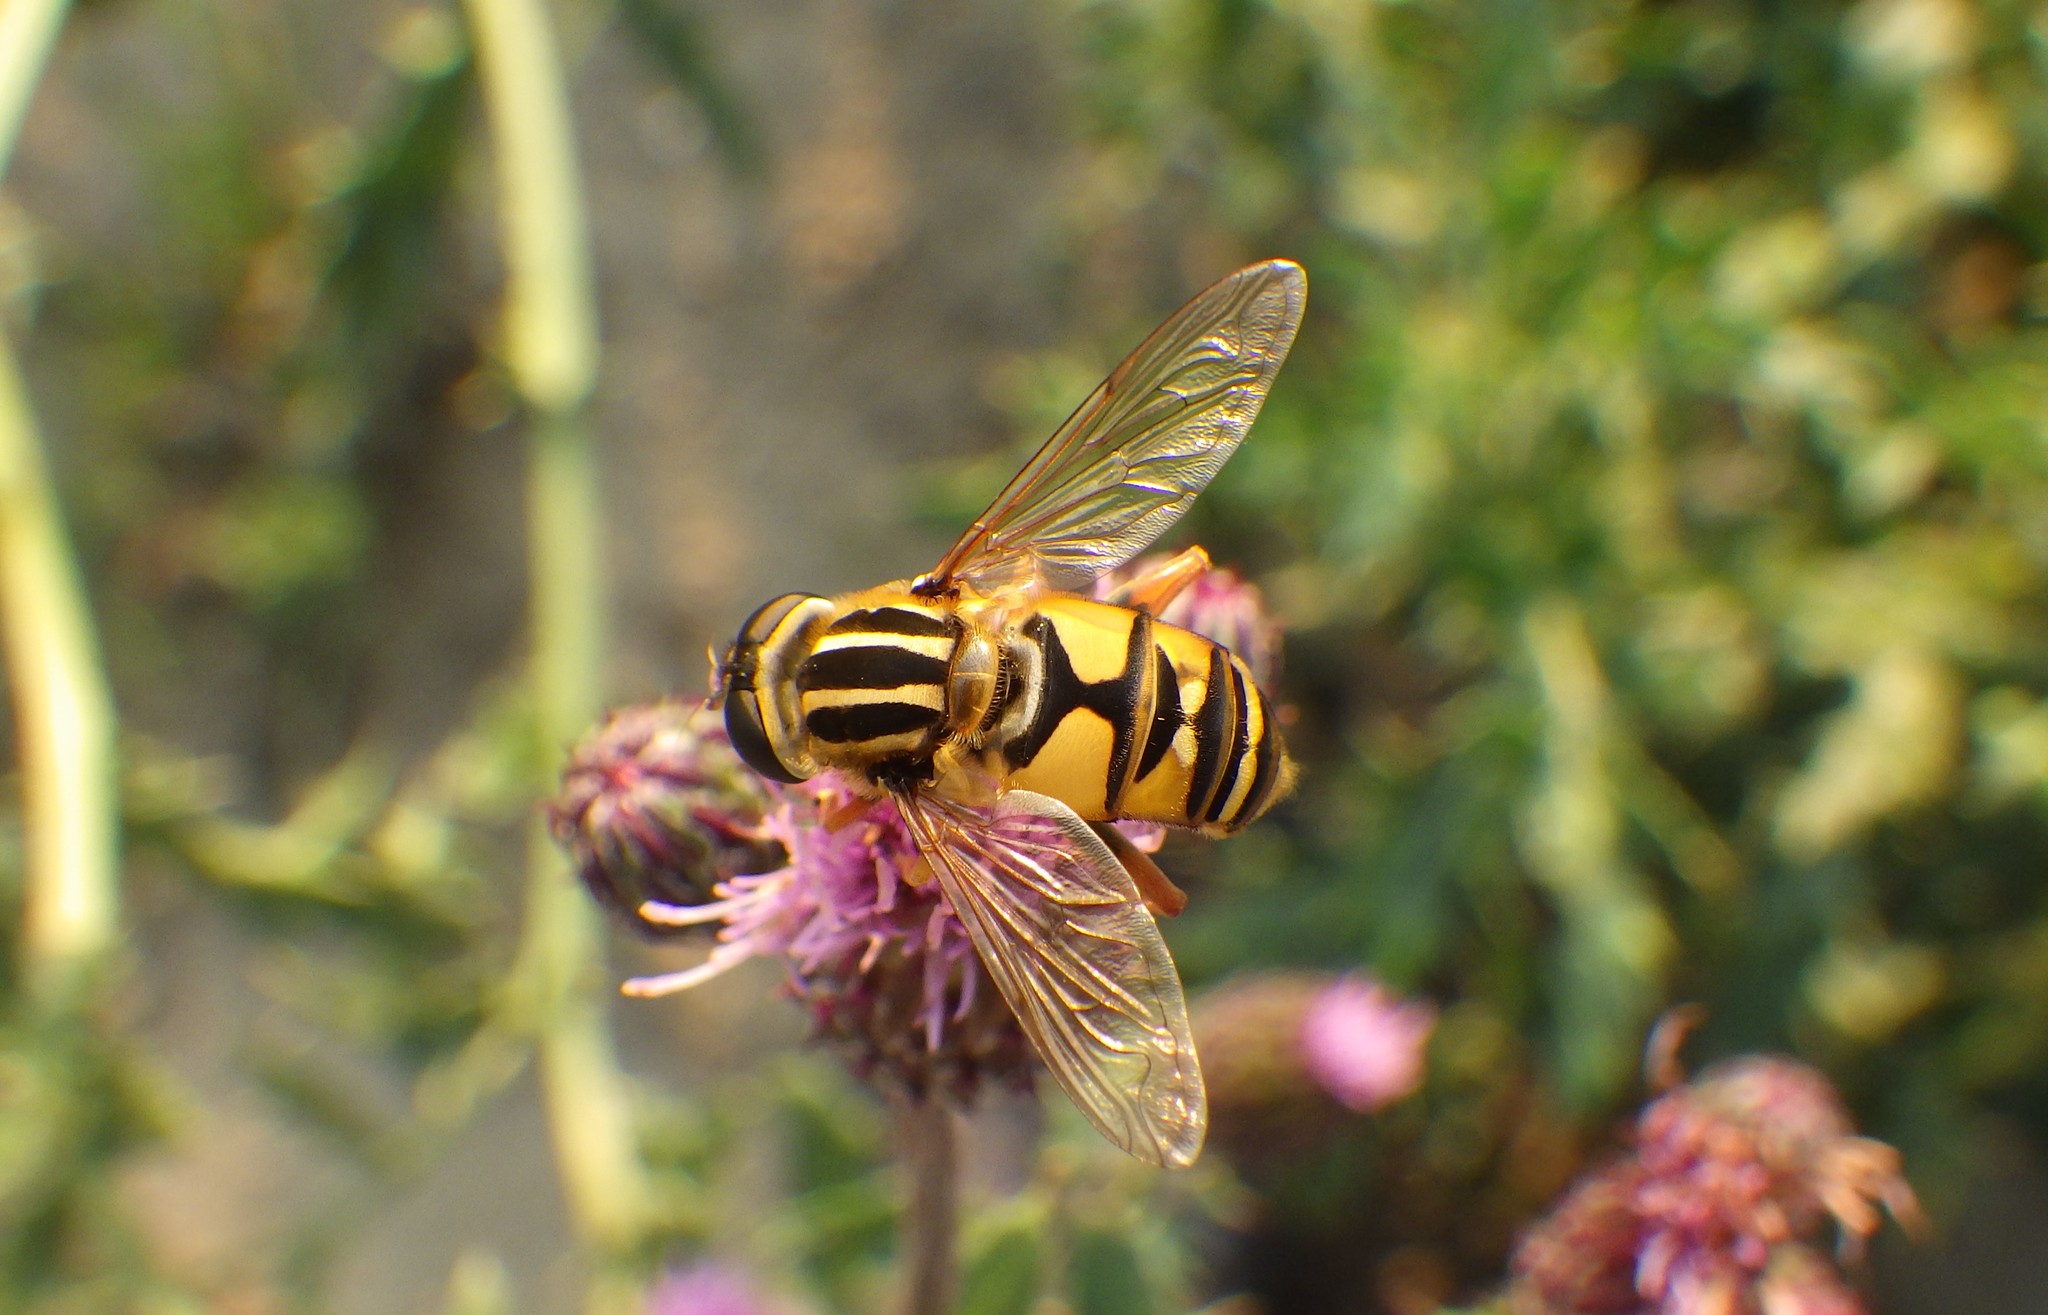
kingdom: Animalia
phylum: Arthropoda
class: Insecta
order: Diptera
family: Syrphidae
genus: Helophilus
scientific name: Helophilus pendulus
